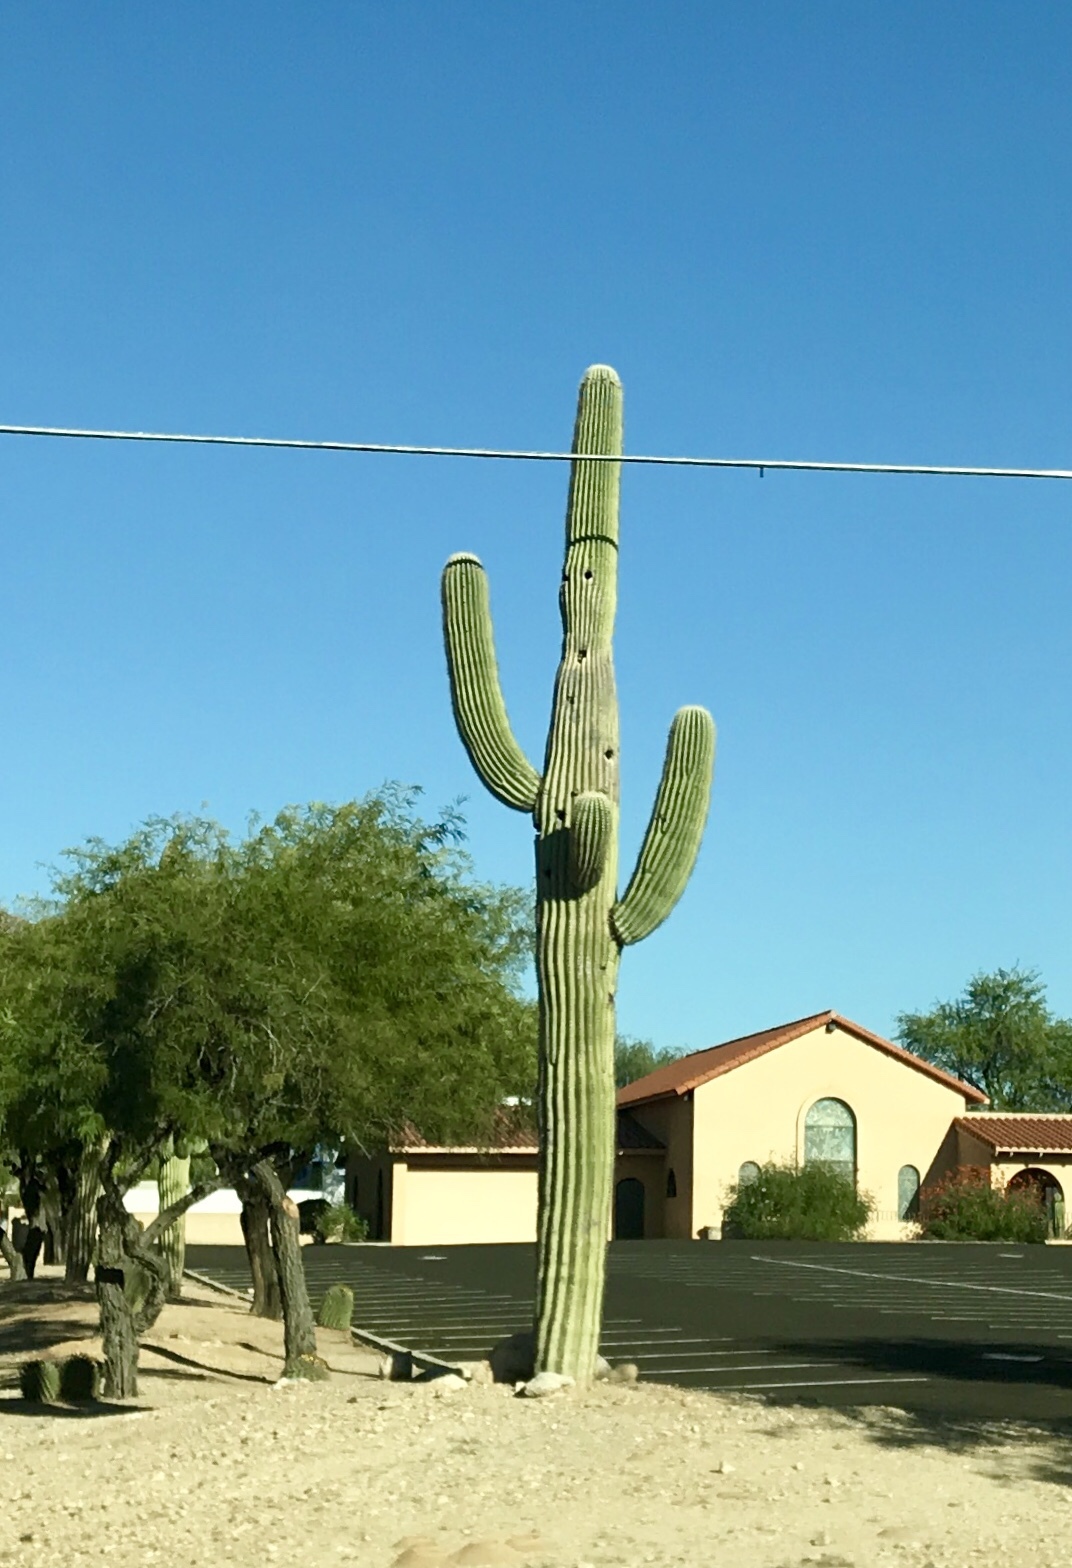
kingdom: Plantae
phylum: Tracheophyta
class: Magnoliopsida
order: Caryophyllales
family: Cactaceae
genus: Carnegiea
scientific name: Carnegiea gigantea
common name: Saguaro
